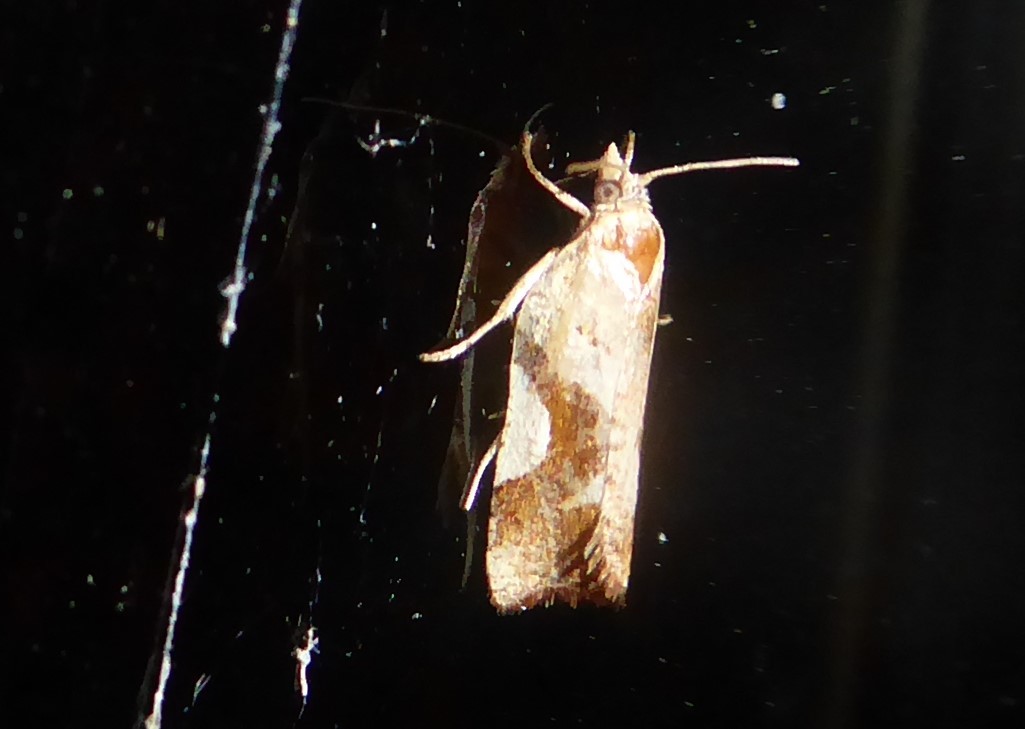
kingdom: Animalia
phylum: Arthropoda
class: Insecta
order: Lepidoptera
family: Tortricidae
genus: Pyrgotis
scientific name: Pyrgotis plagiatana
